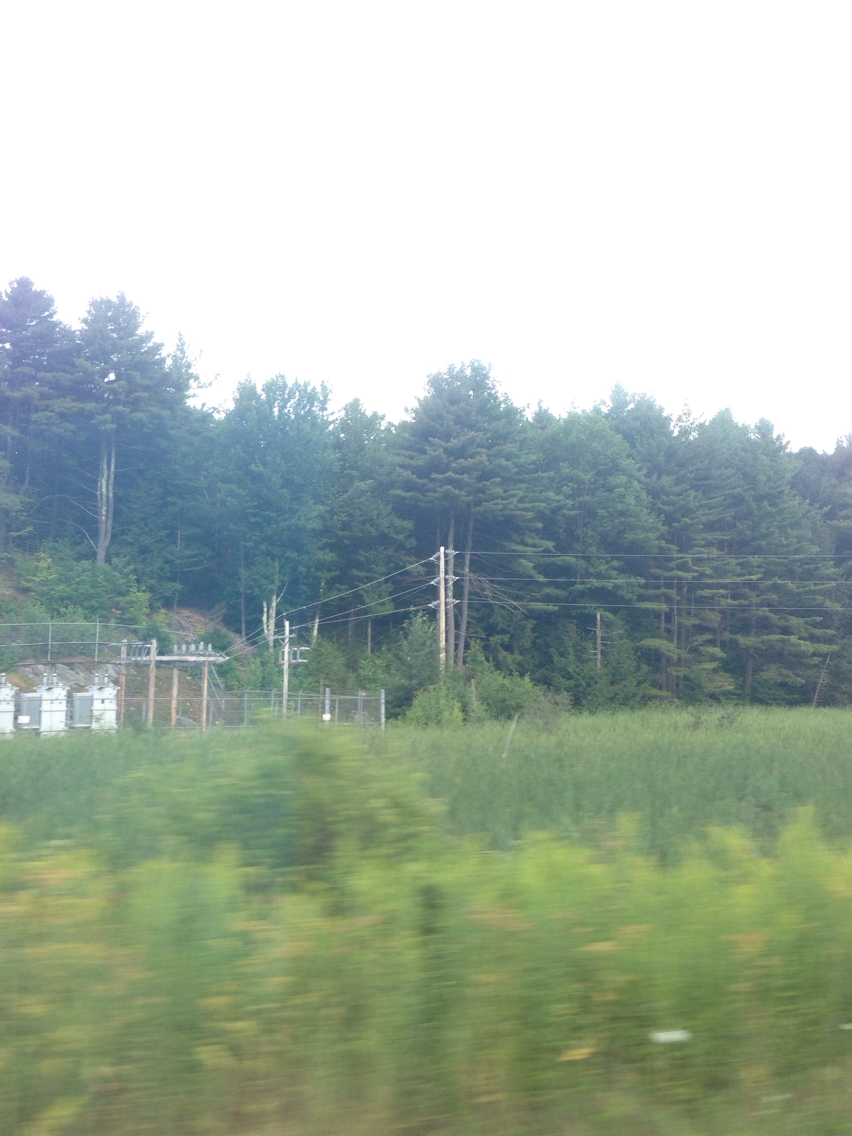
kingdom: Plantae
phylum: Tracheophyta
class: Pinopsida
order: Pinales
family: Pinaceae
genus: Pinus
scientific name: Pinus strobus
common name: Weymouth pine
